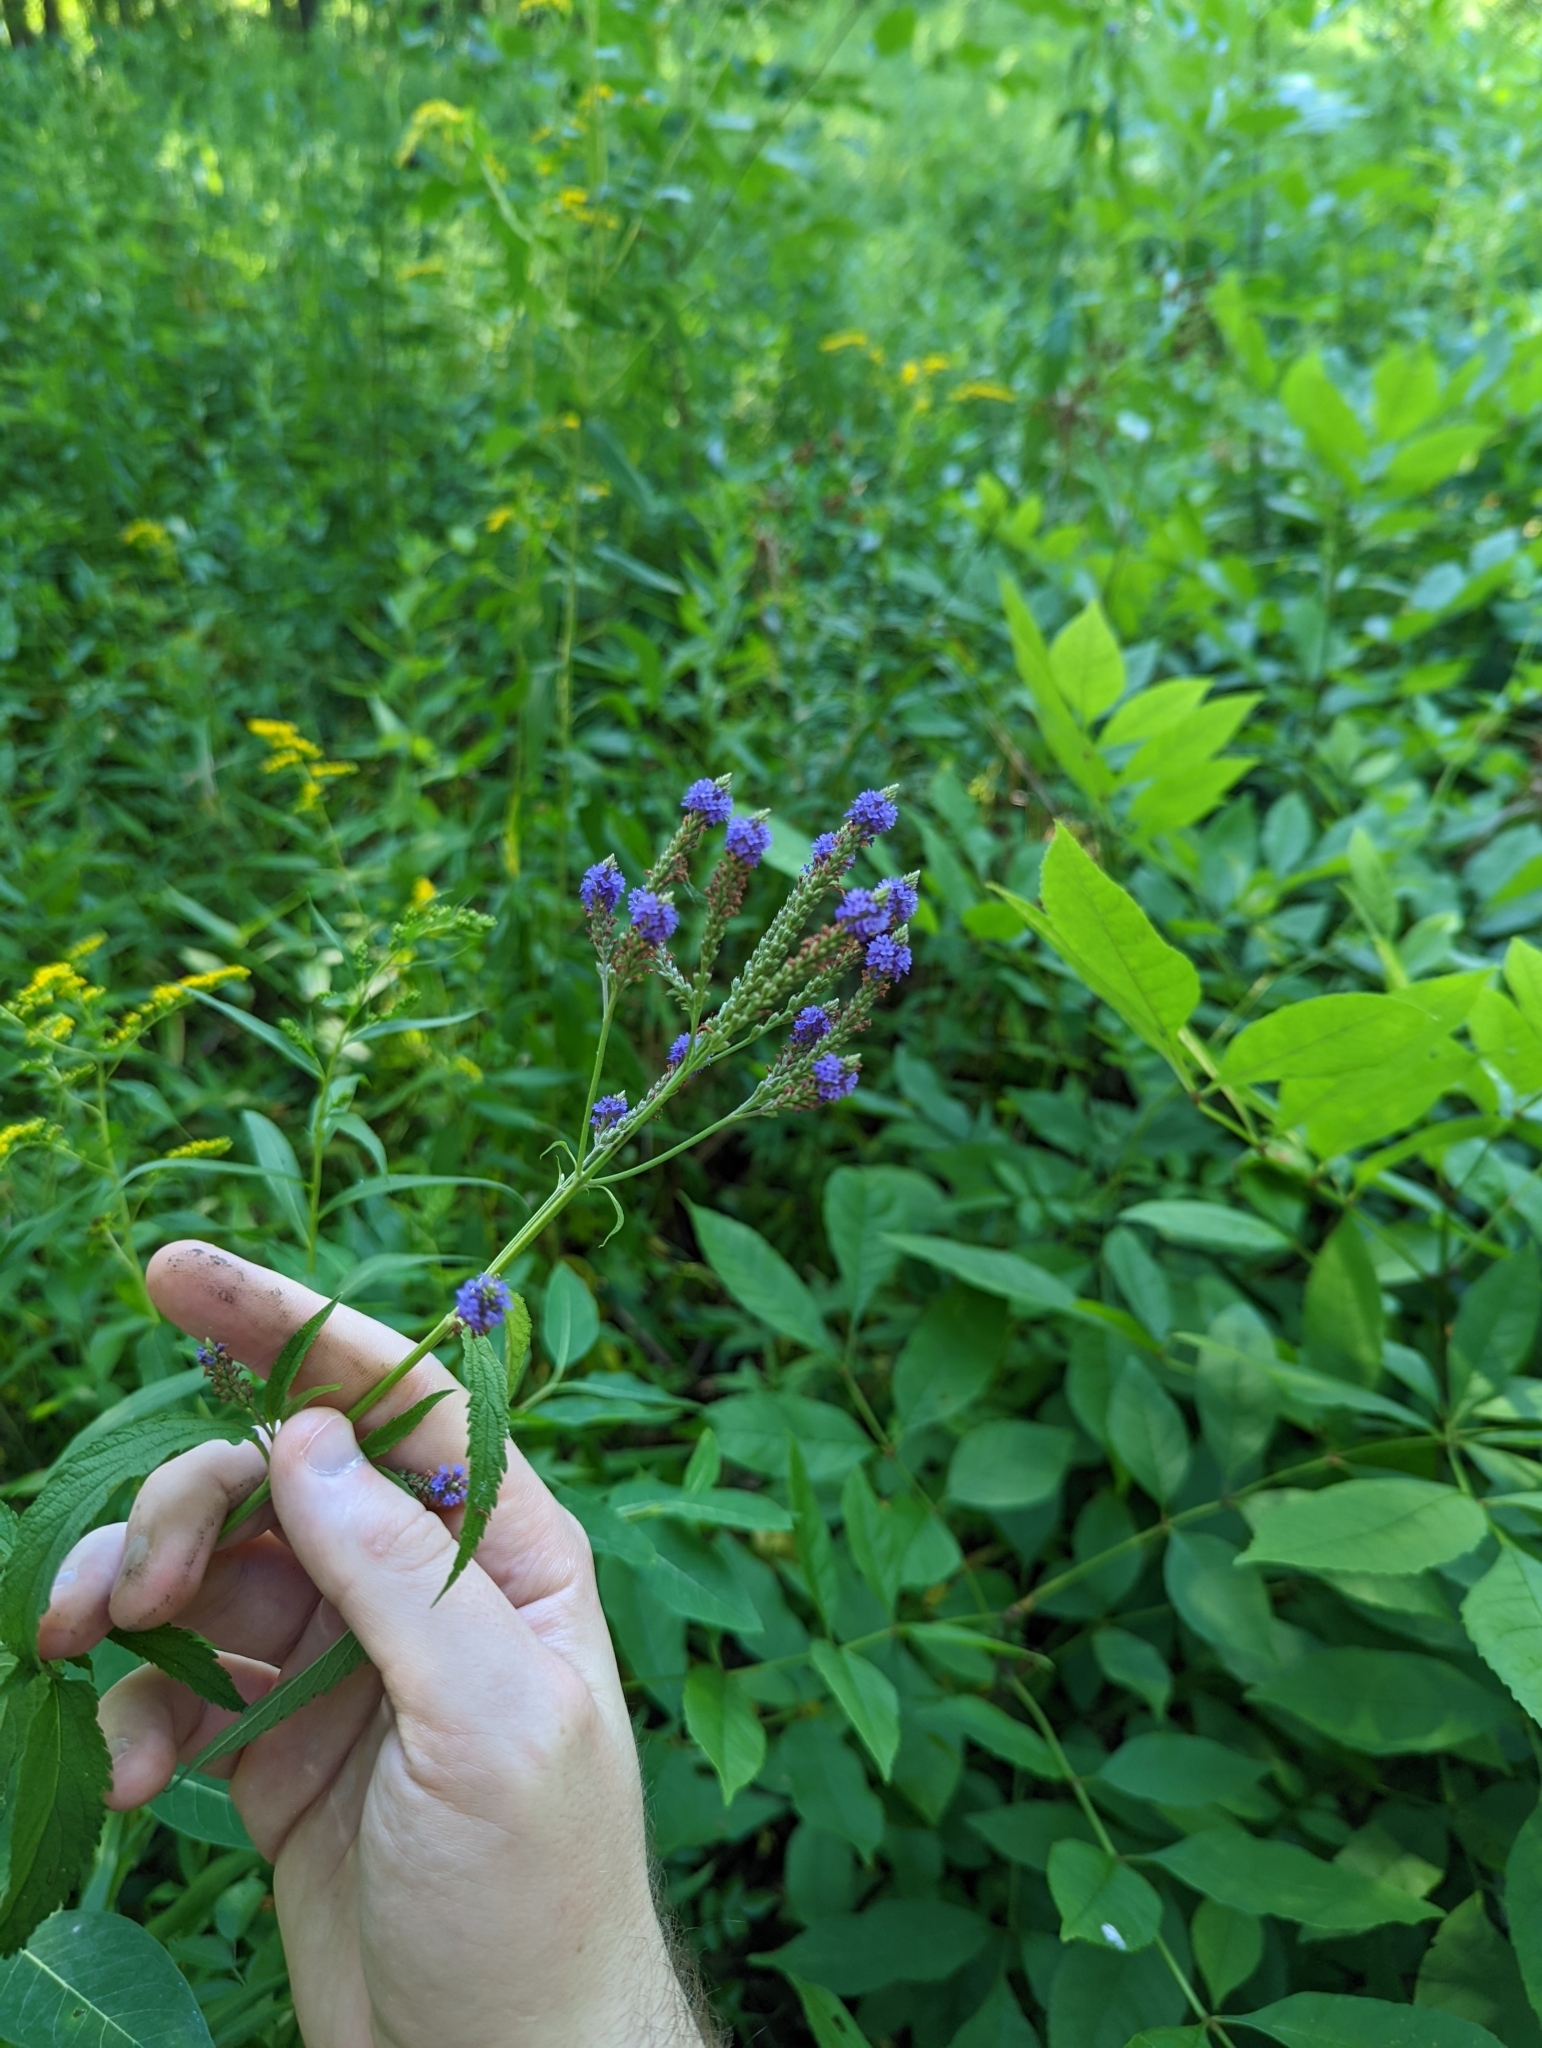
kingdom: Plantae
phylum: Tracheophyta
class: Magnoliopsida
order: Lamiales
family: Verbenaceae
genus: Verbena
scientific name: Verbena hastata
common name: American blue vervain
